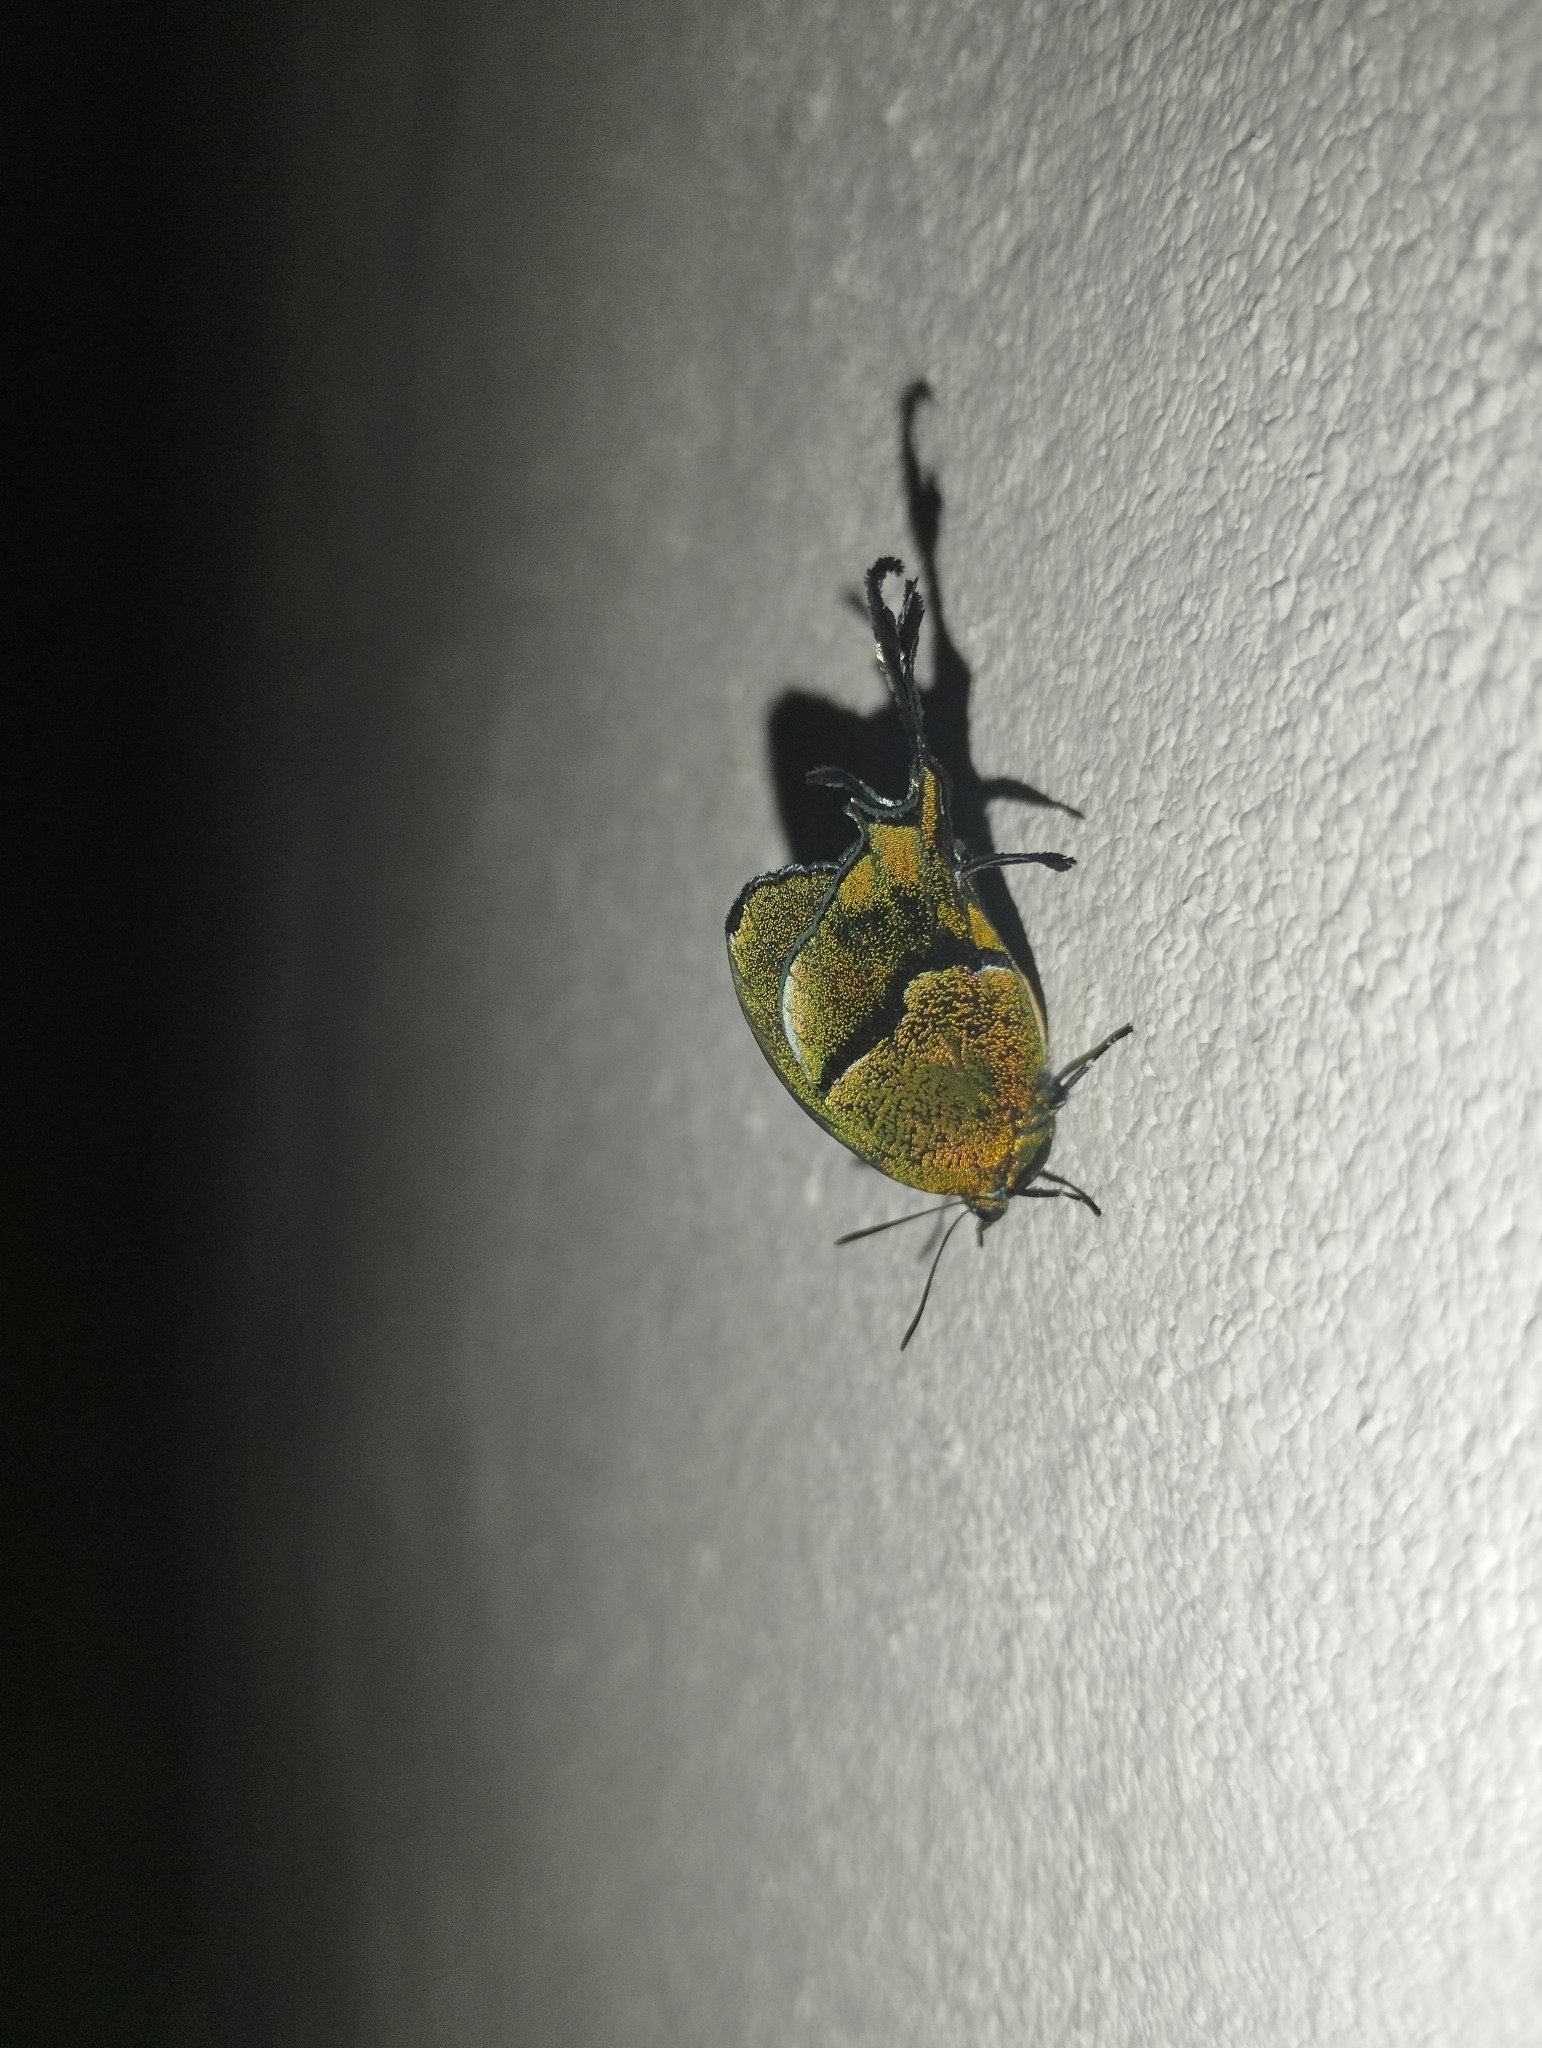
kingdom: Animalia
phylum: Arthropoda
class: Insecta
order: Lepidoptera
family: Lycaenidae
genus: Arcas
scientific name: Arcas cypria
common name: Mexican arcas
